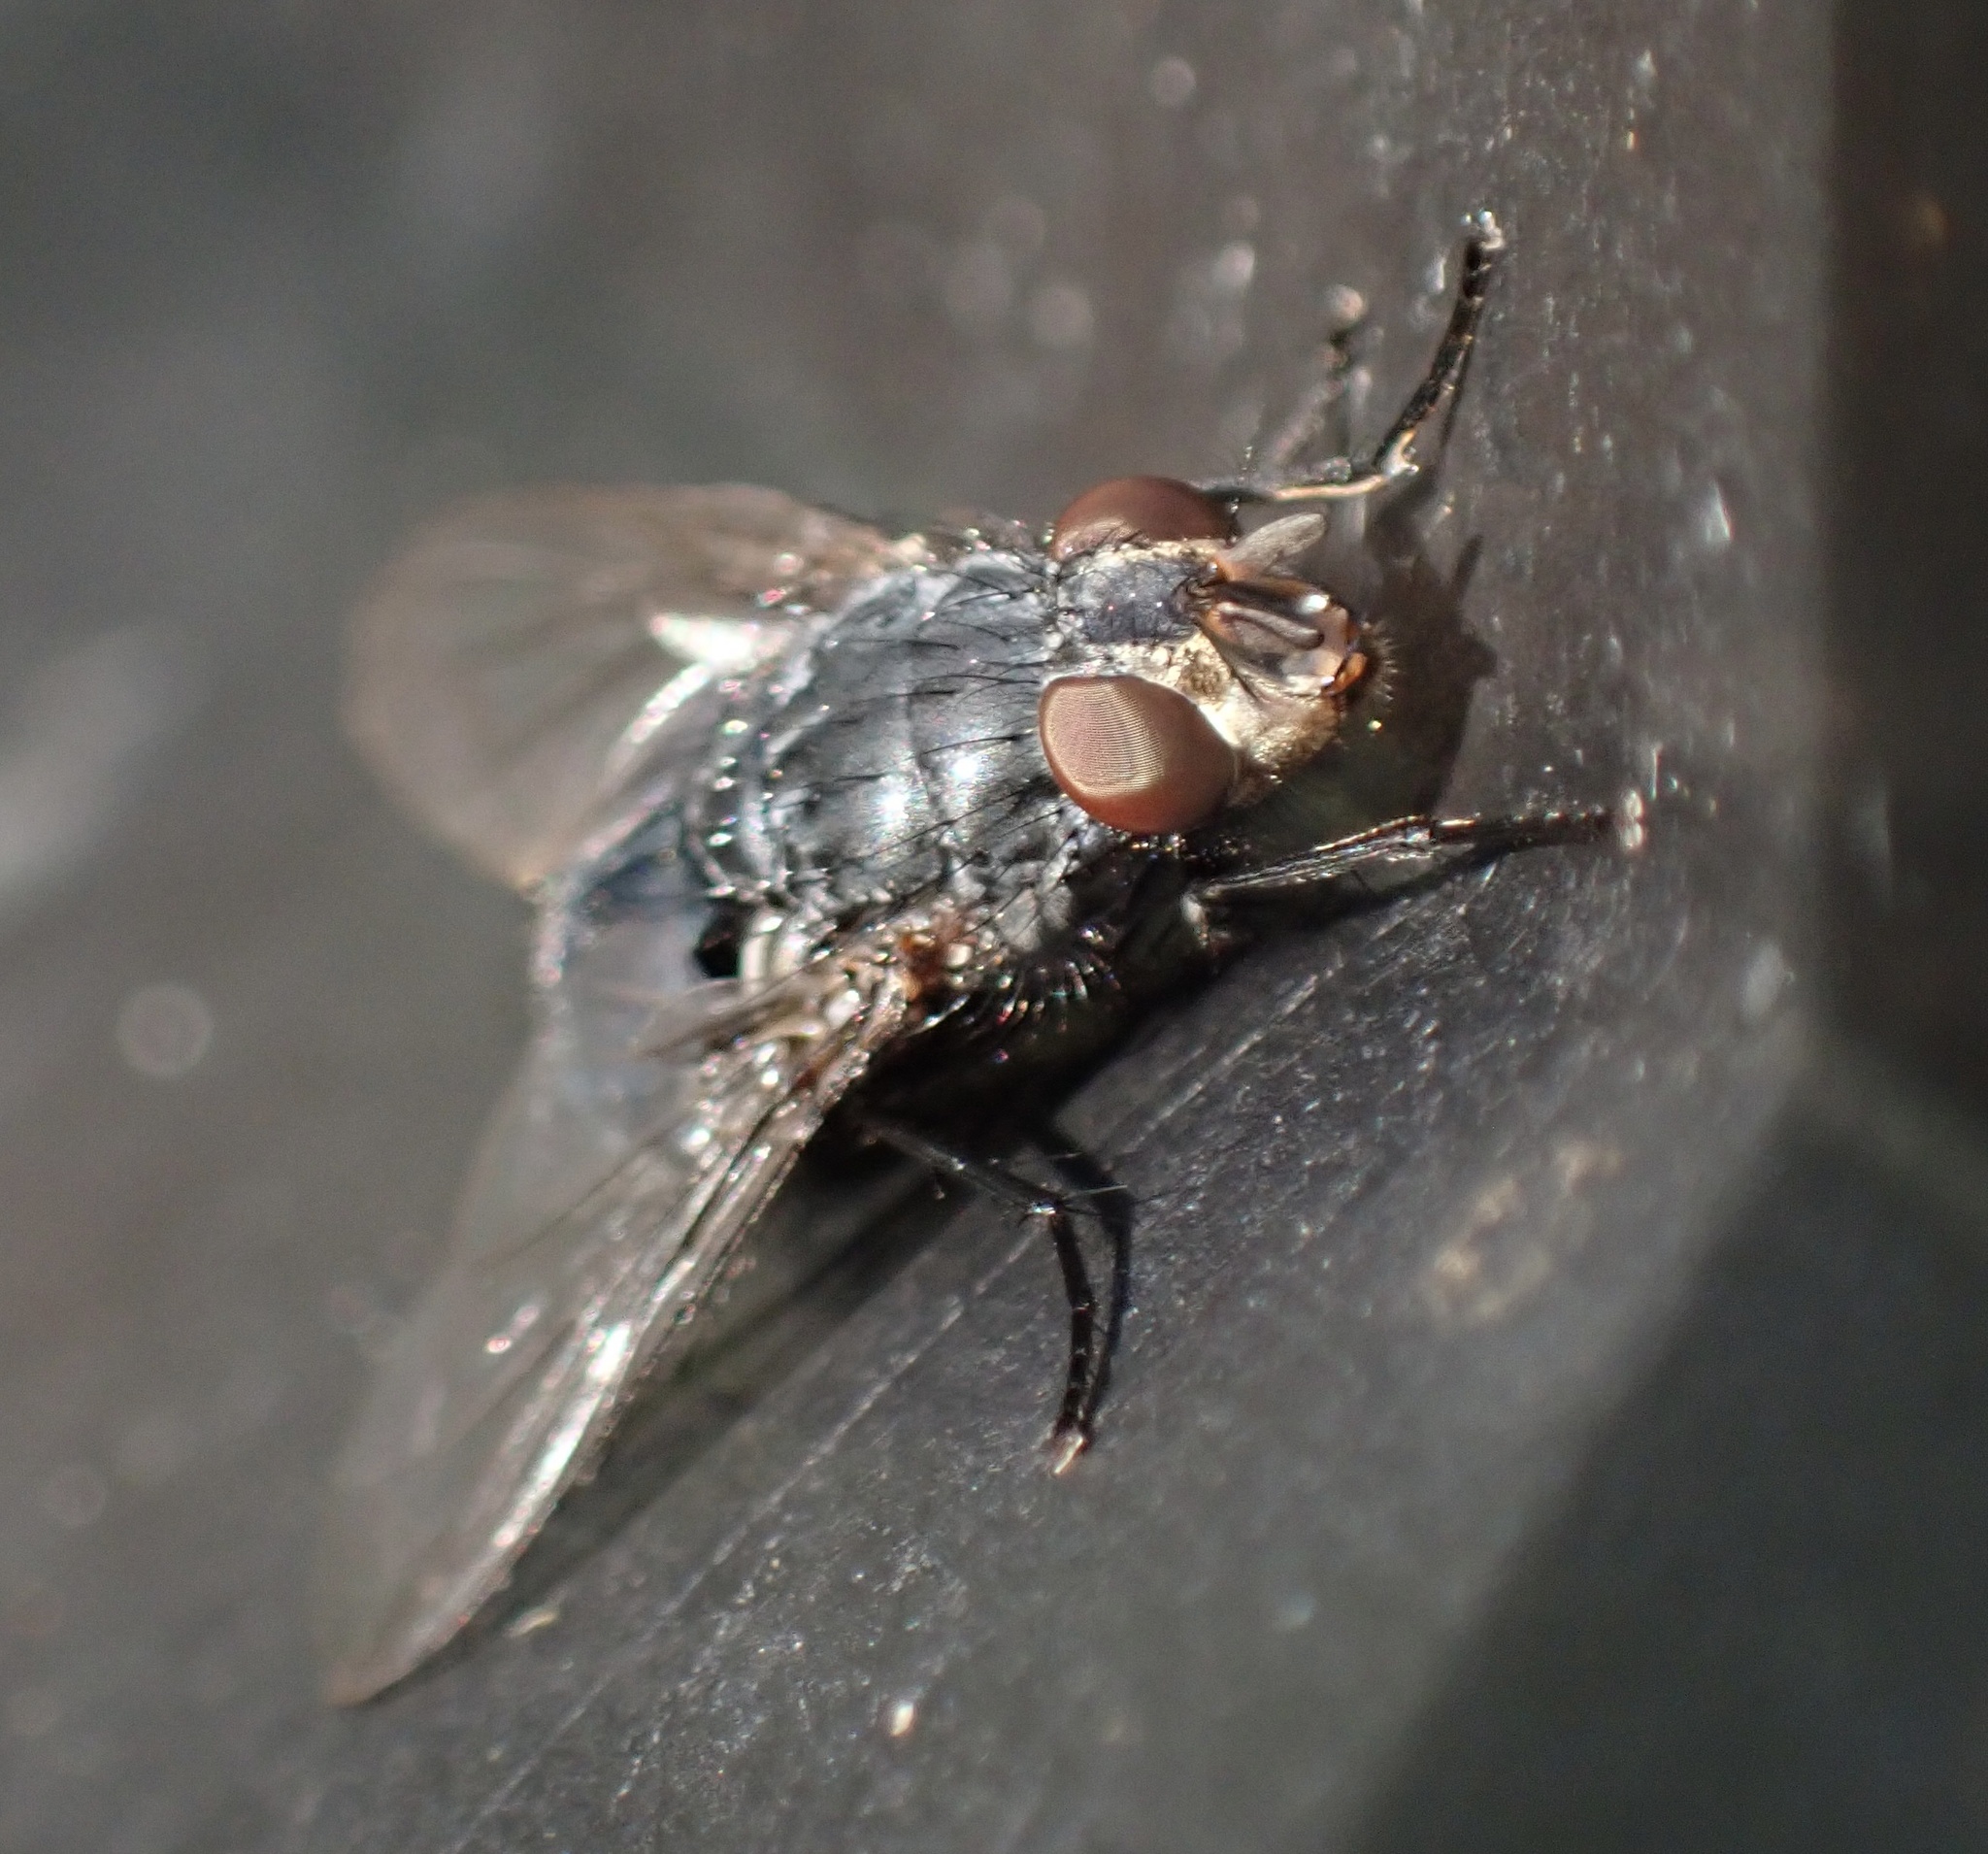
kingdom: Animalia
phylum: Arthropoda
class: Insecta
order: Diptera
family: Calliphoridae
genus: Calliphora
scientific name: Calliphora vicina
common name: Common blow flie
